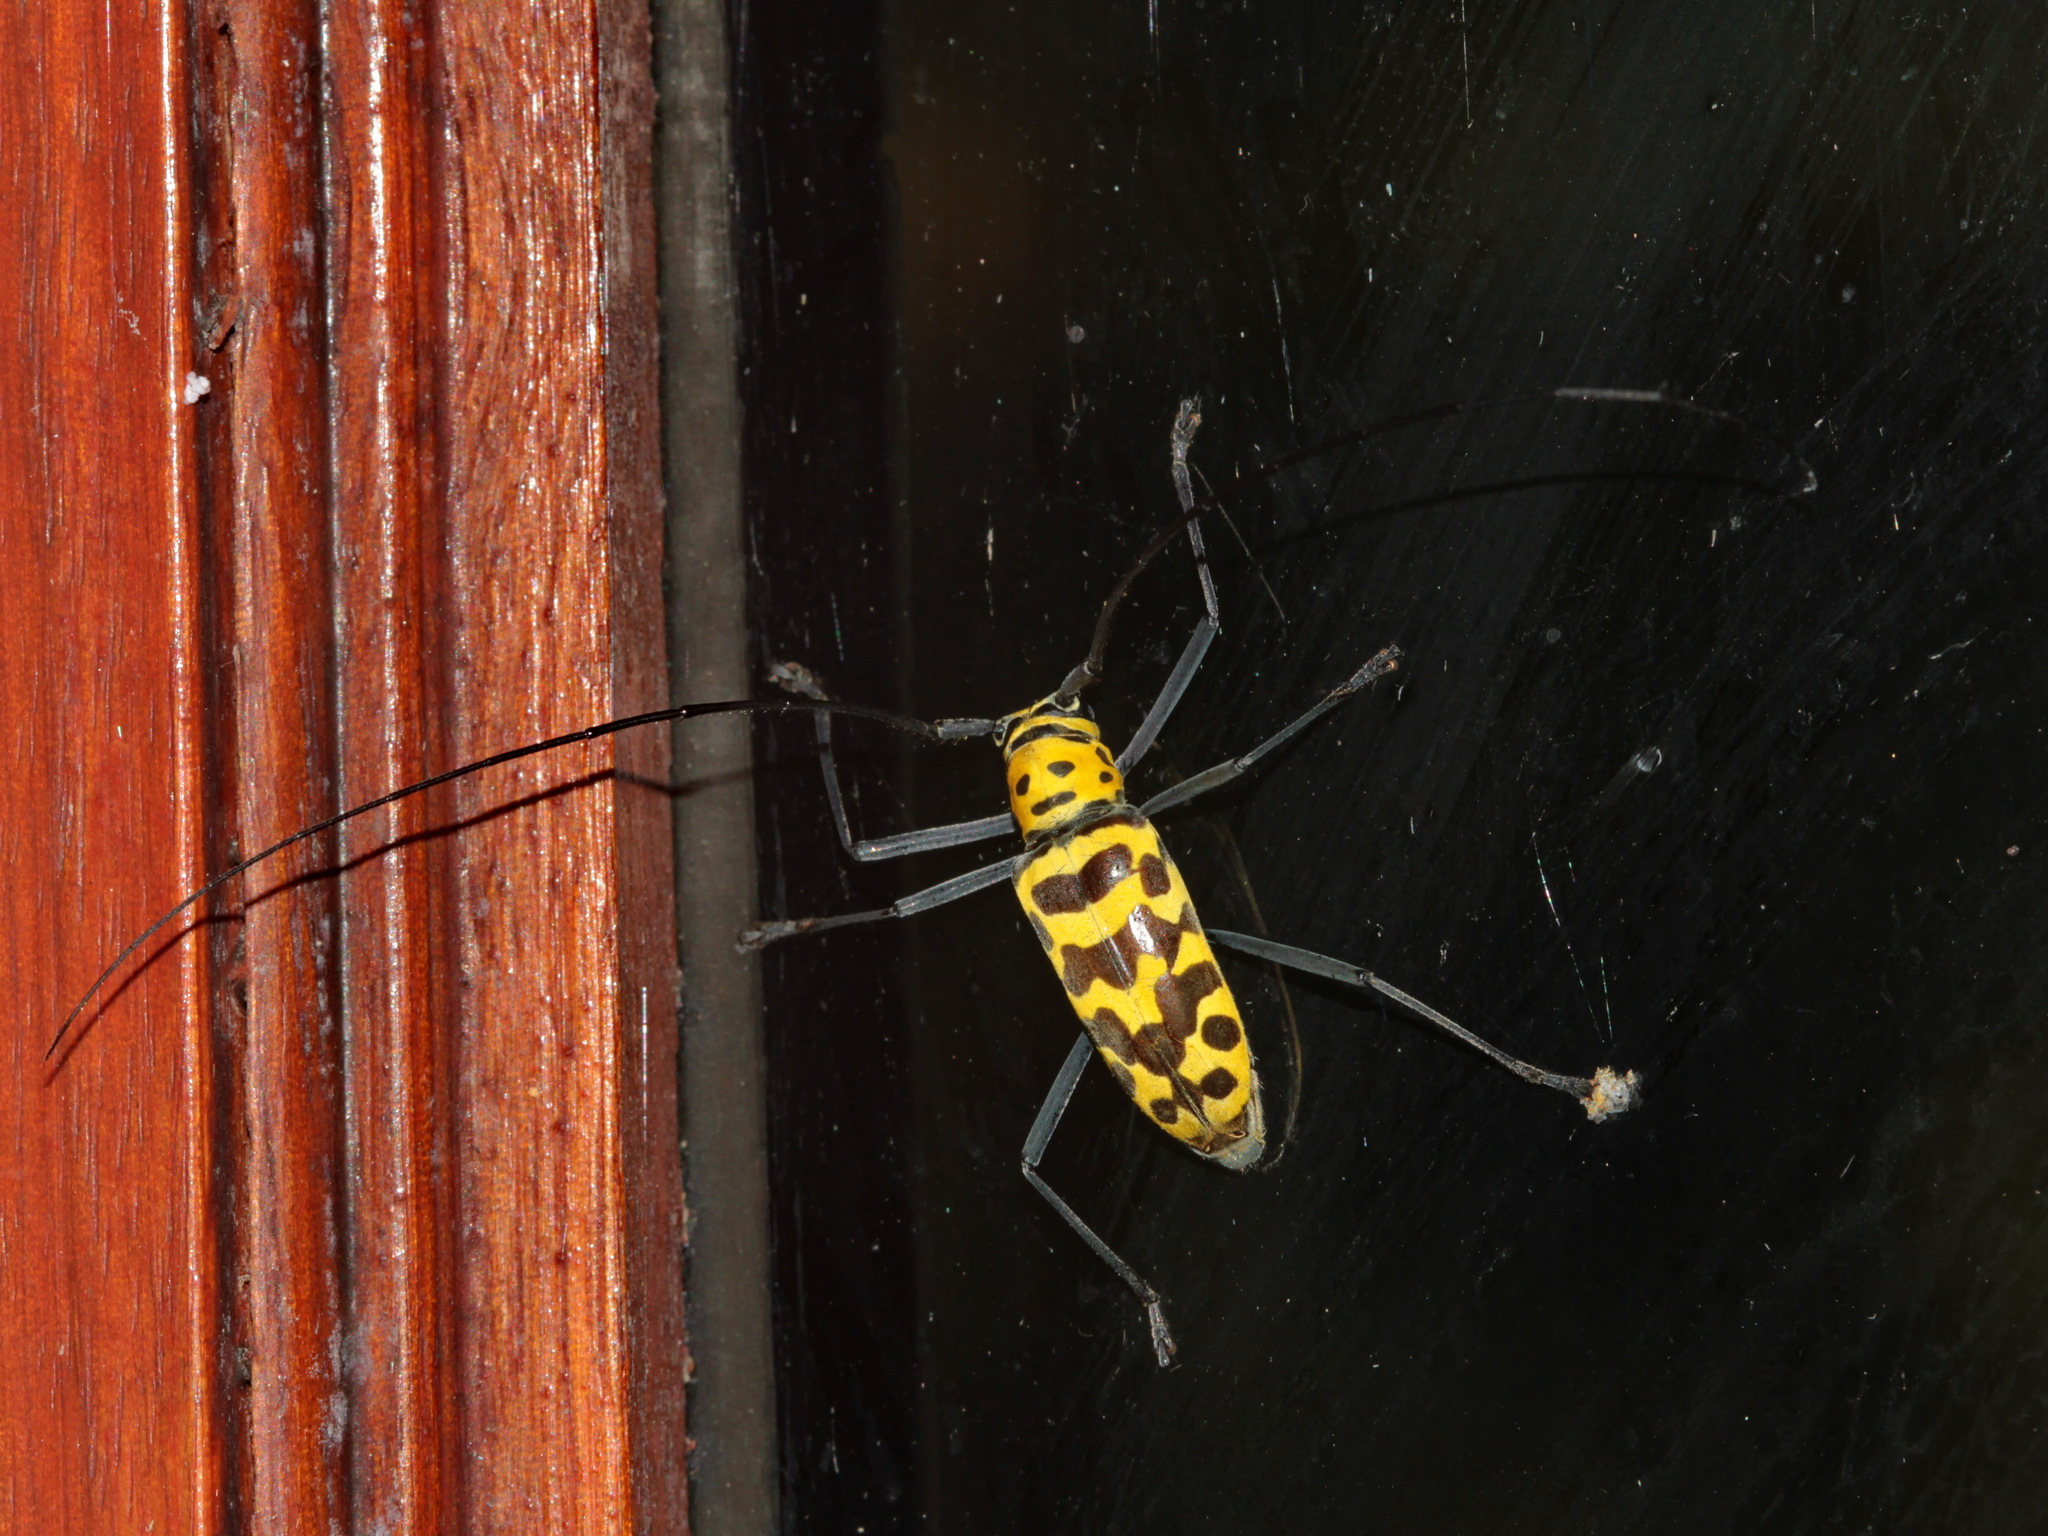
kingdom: Animalia
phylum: Arthropoda
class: Insecta
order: Coleoptera
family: Cerambycidae
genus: Gerania
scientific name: Gerania boscii
